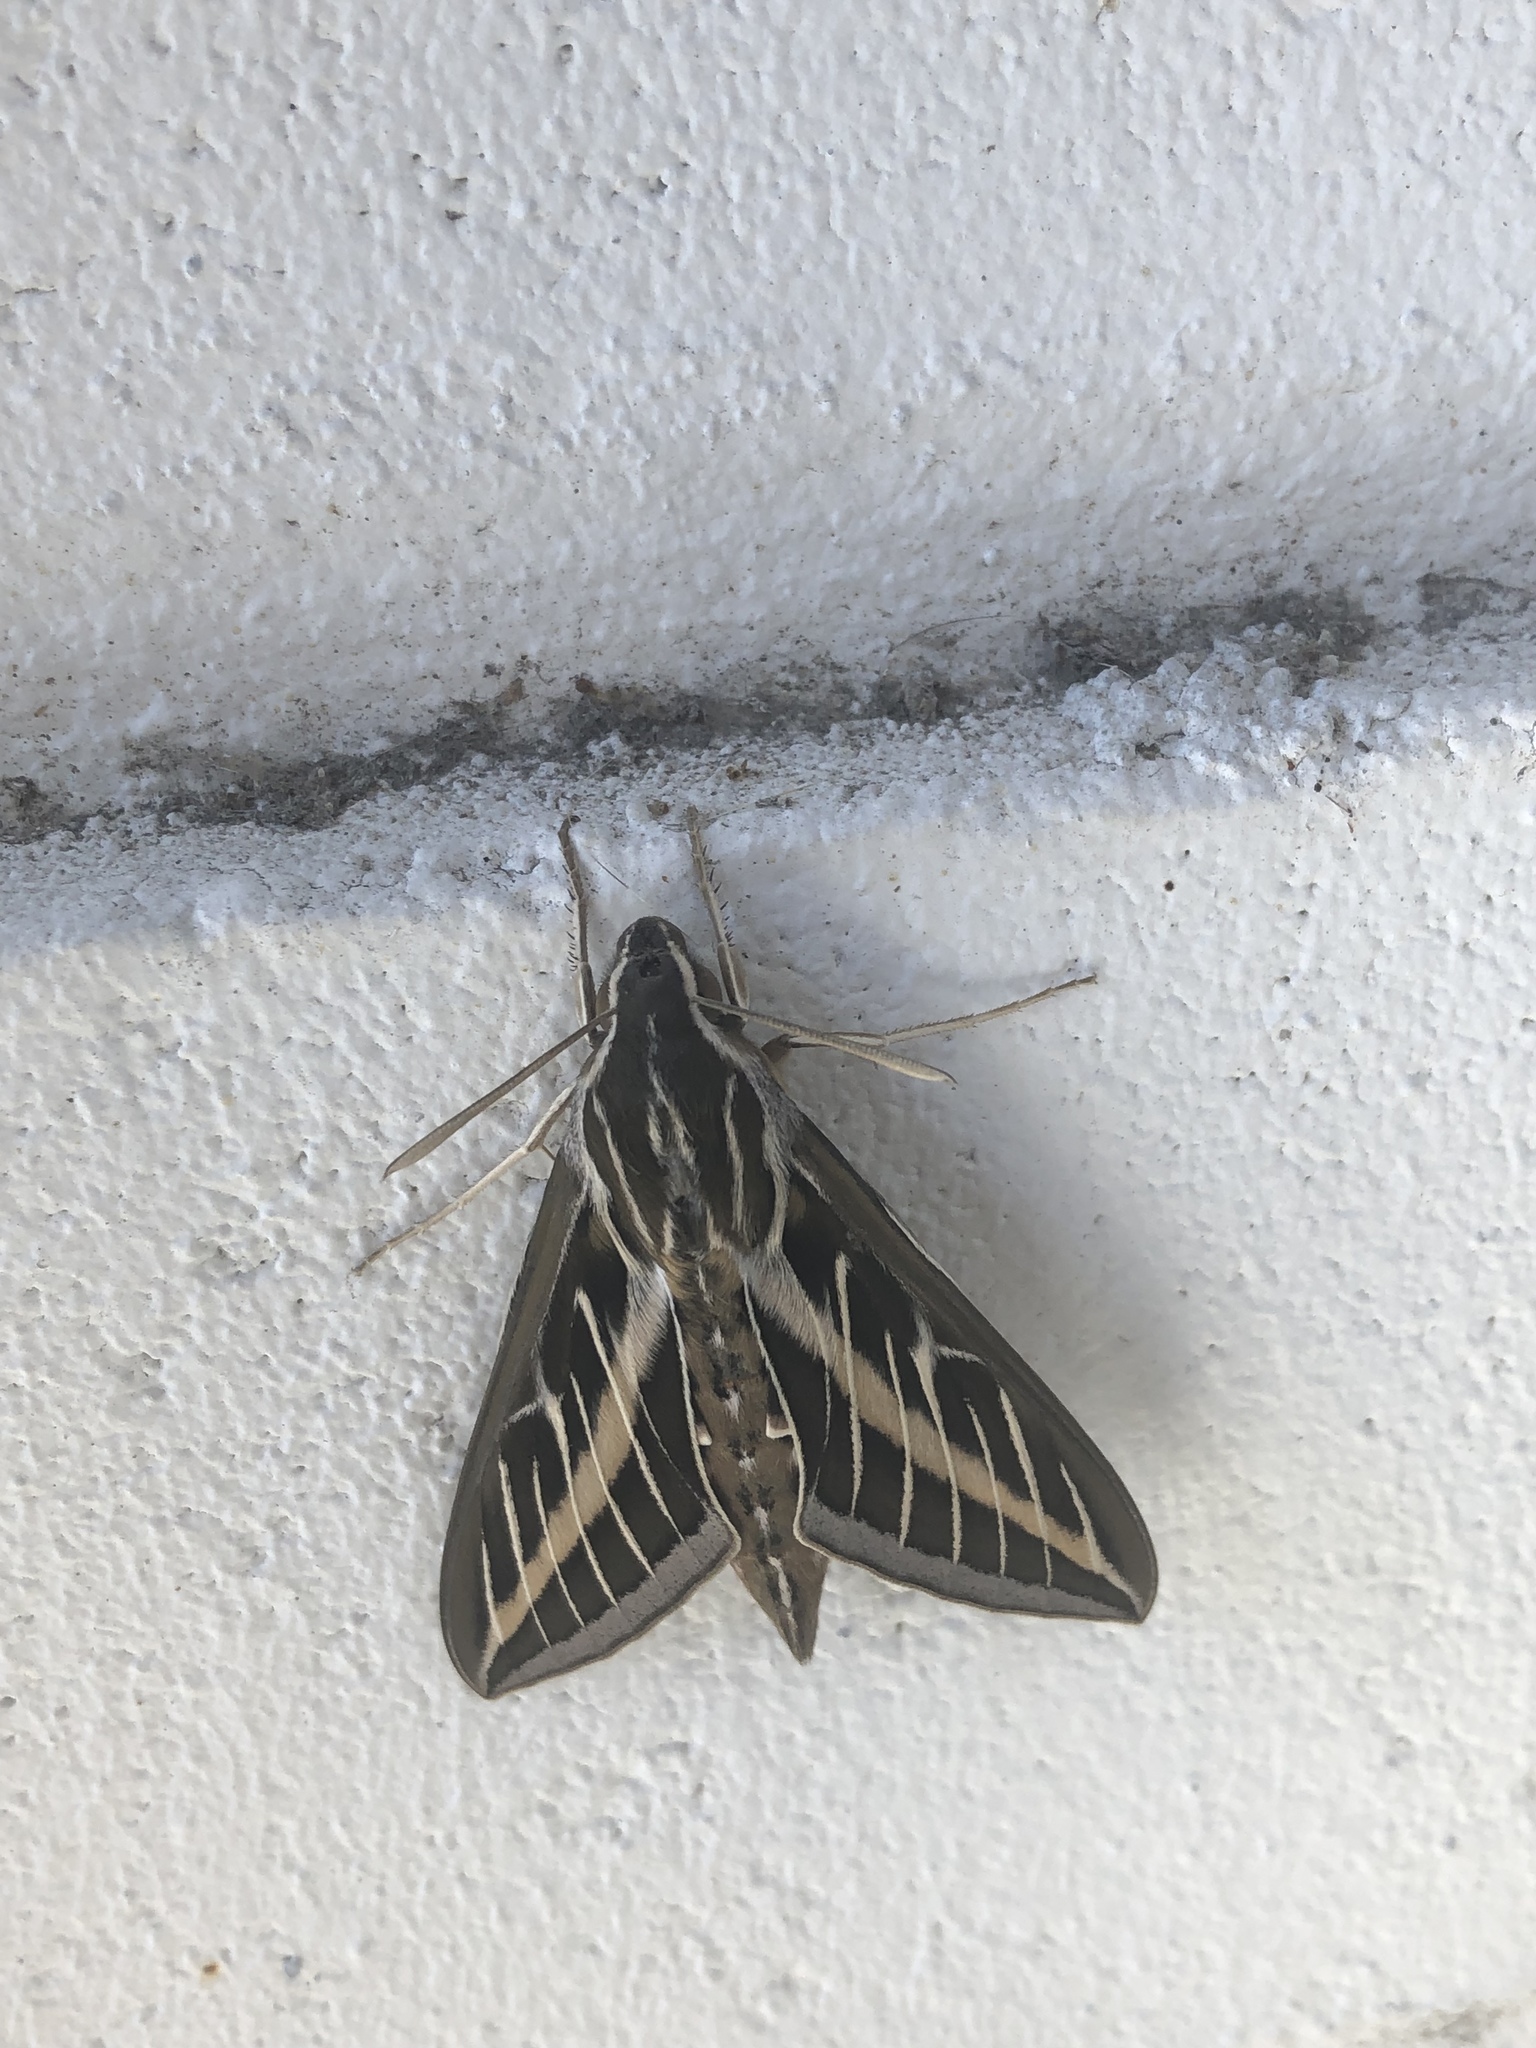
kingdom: Animalia
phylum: Arthropoda
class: Insecta
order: Lepidoptera
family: Sphingidae
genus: Hyles
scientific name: Hyles lineata
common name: White-lined sphinx
